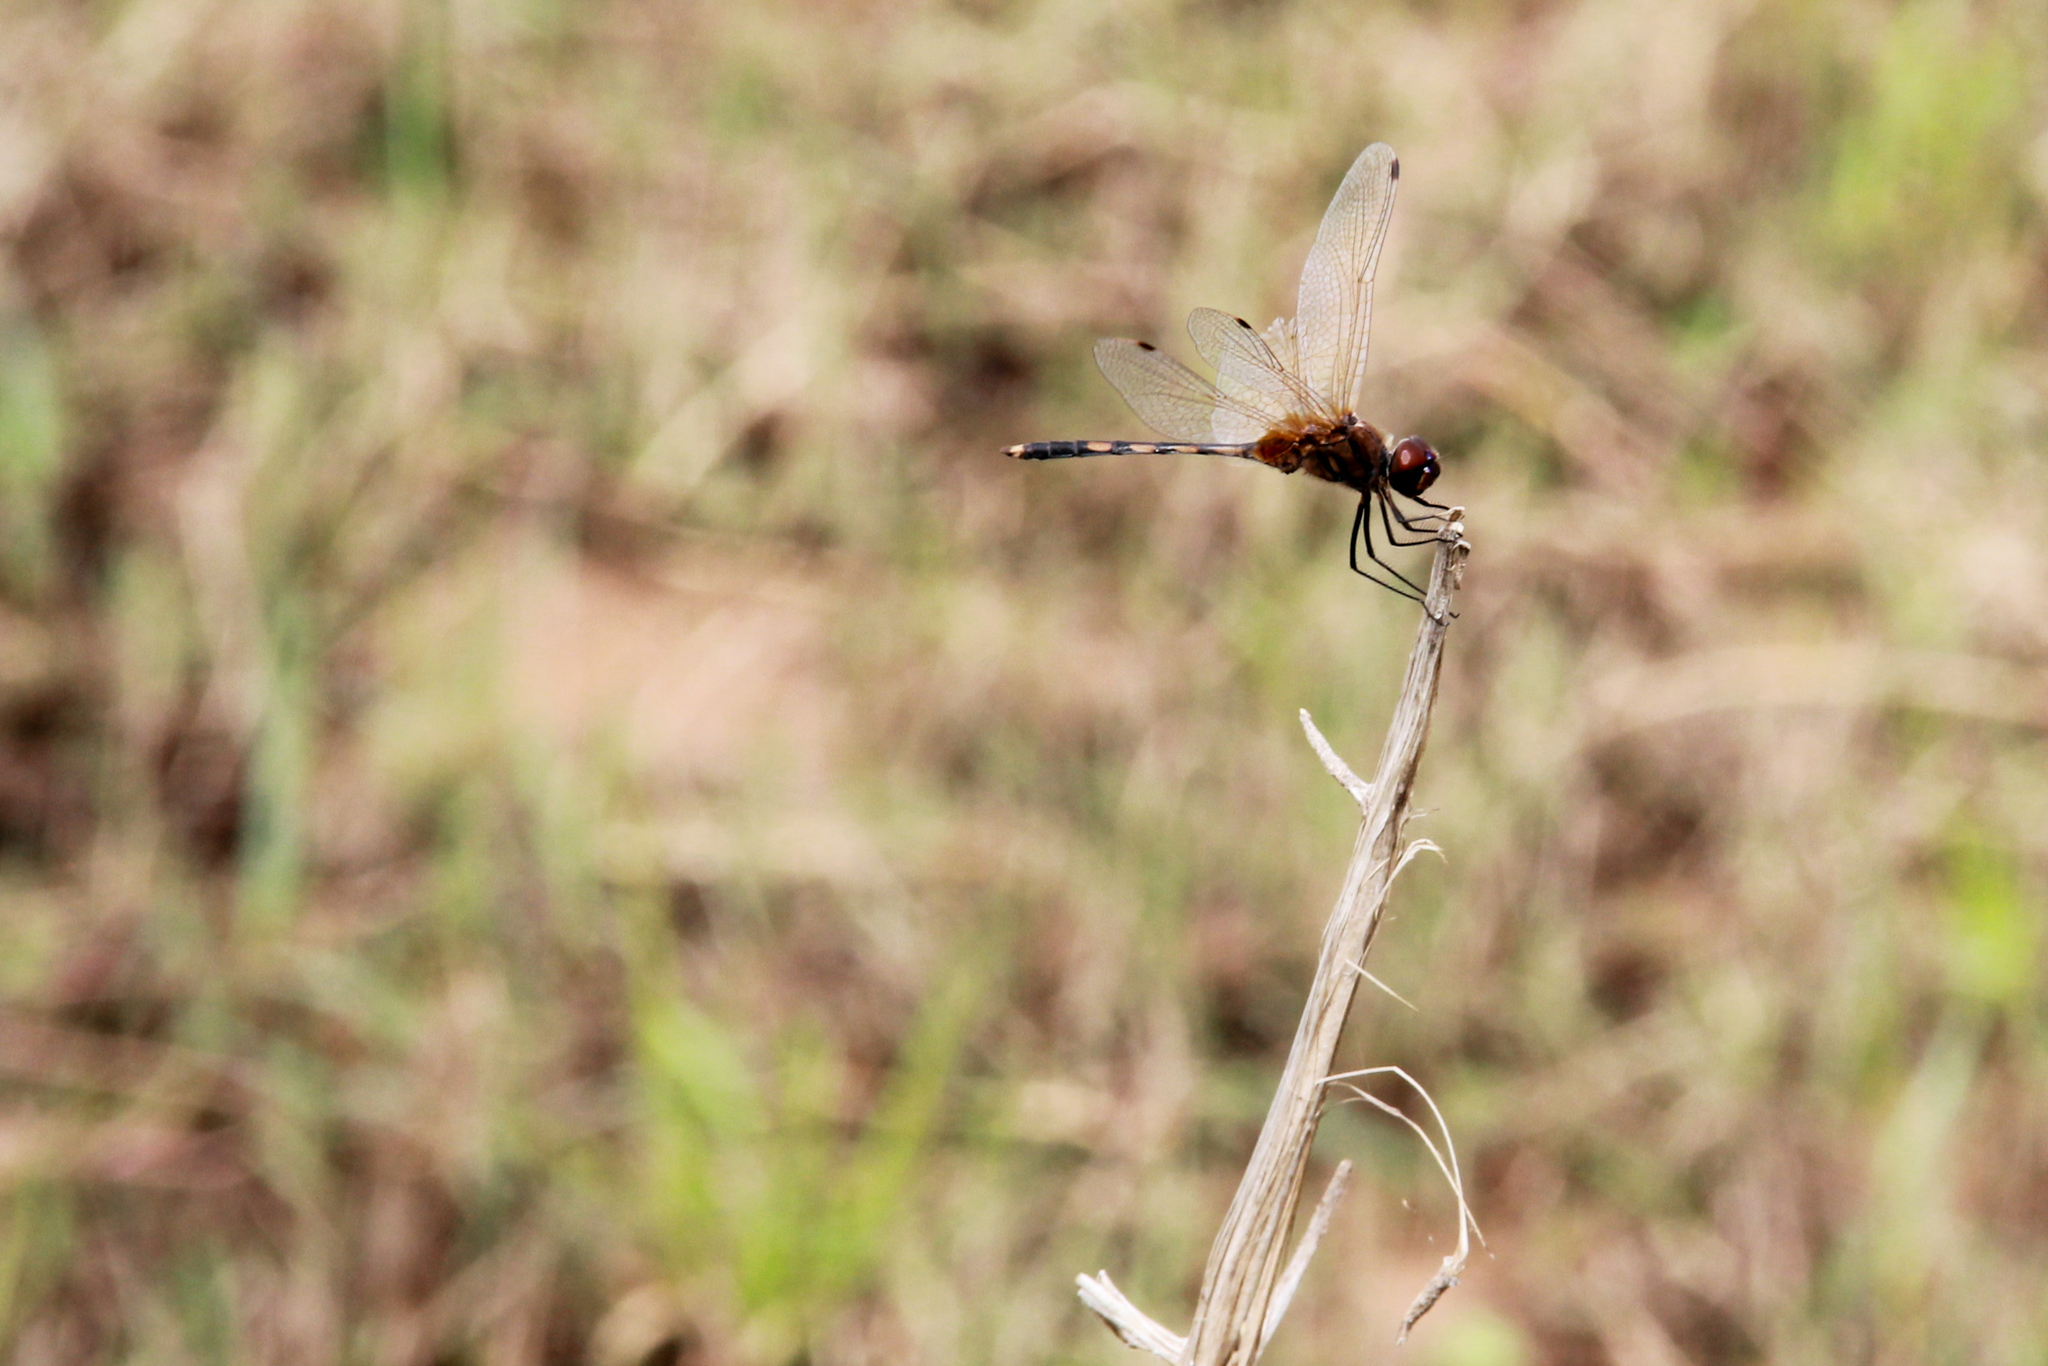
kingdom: Animalia
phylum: Arthropoda
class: Insecta
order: Odonata
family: Libellulidae
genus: Trithemis
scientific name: Trithemis pallidinervis
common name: Dancing dropwing
